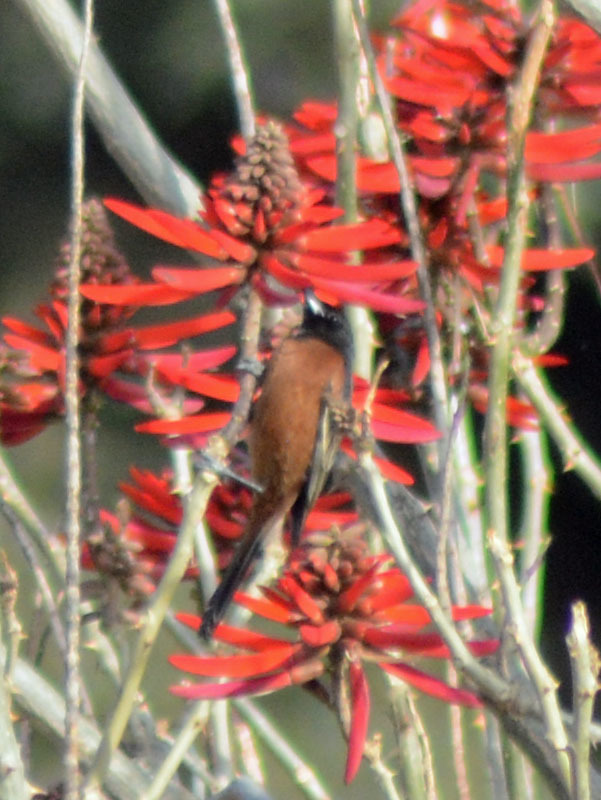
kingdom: Animalia
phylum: Chordata
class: Aves
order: Passeriformes
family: Icteridae
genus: Icterus
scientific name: Icterus spurius
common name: Orchard oriole
